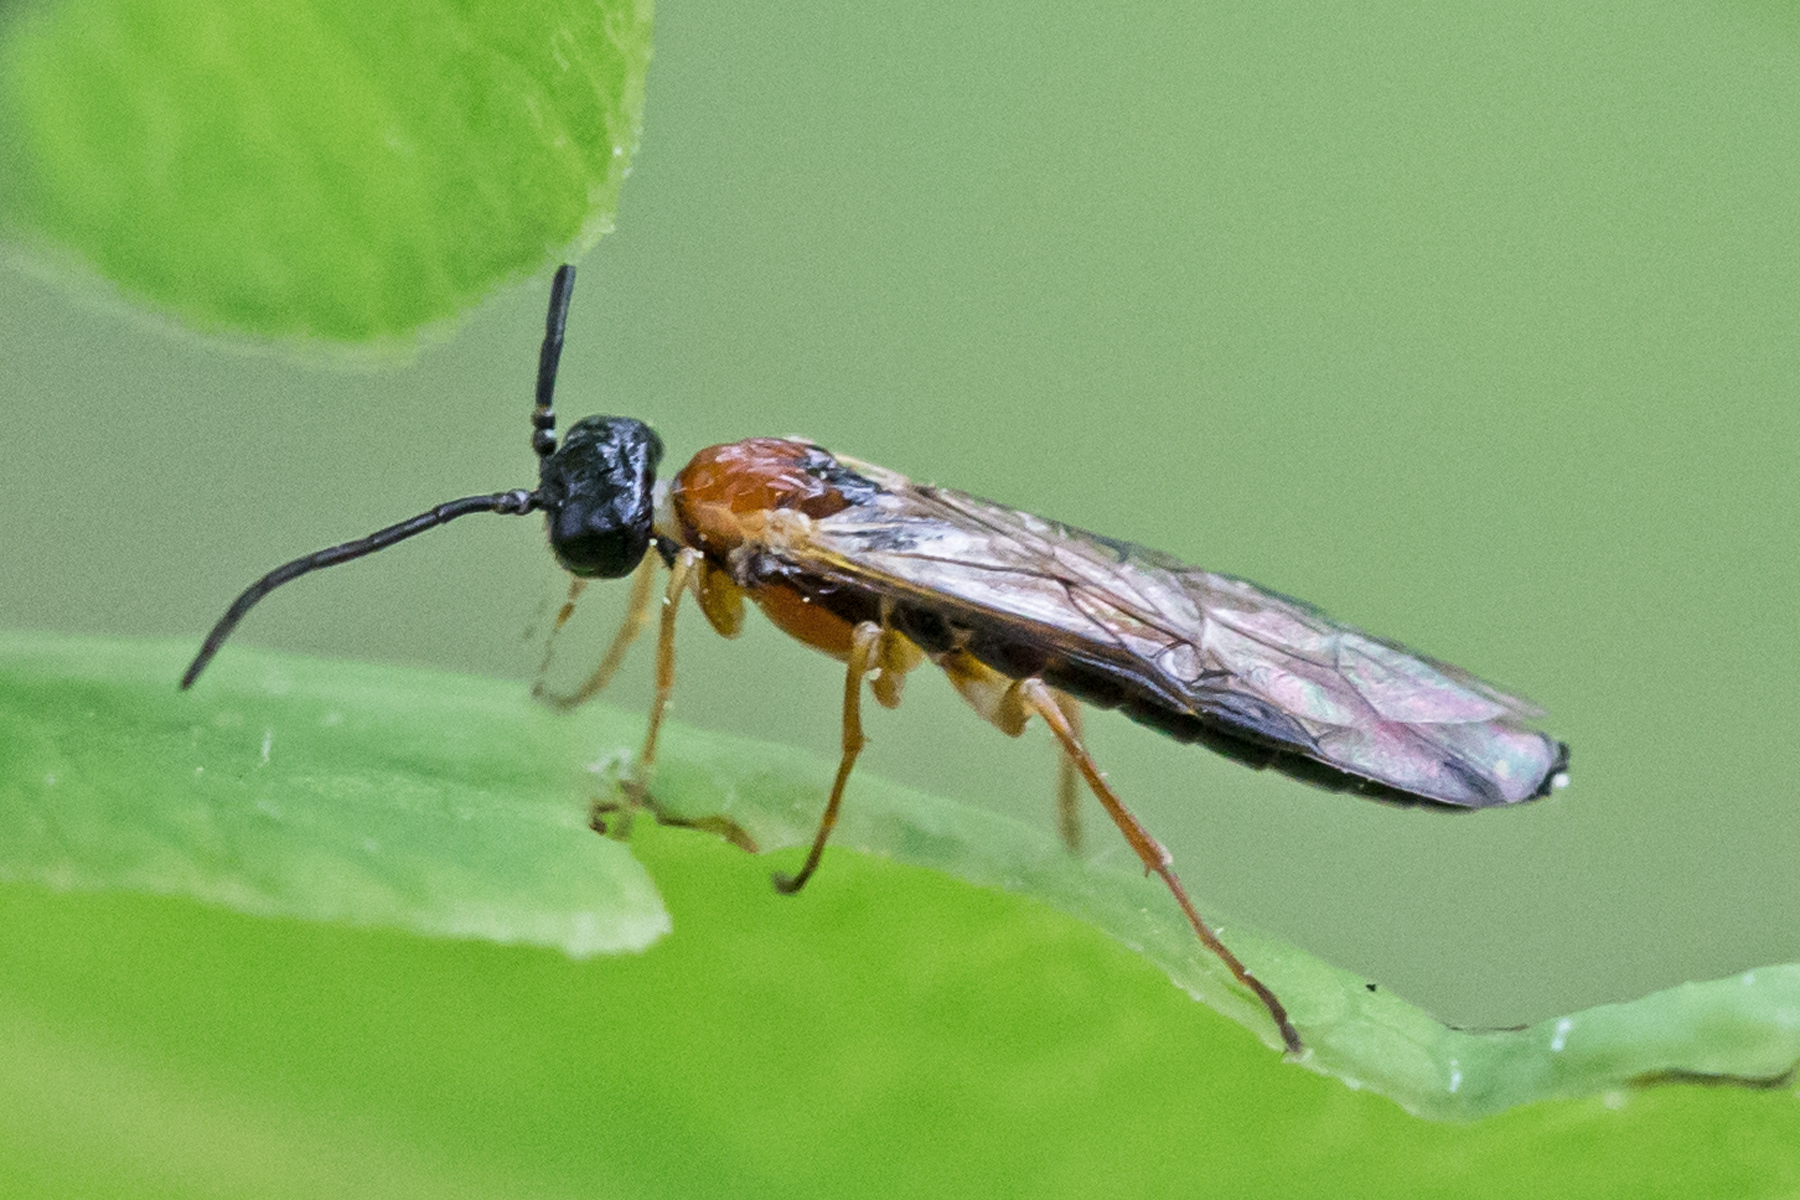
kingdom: Animalia
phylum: Arthropoda
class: Insecta
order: Hymenoptera
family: Tenthredinidae
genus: Thrinax
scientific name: Thrinax dubitata
